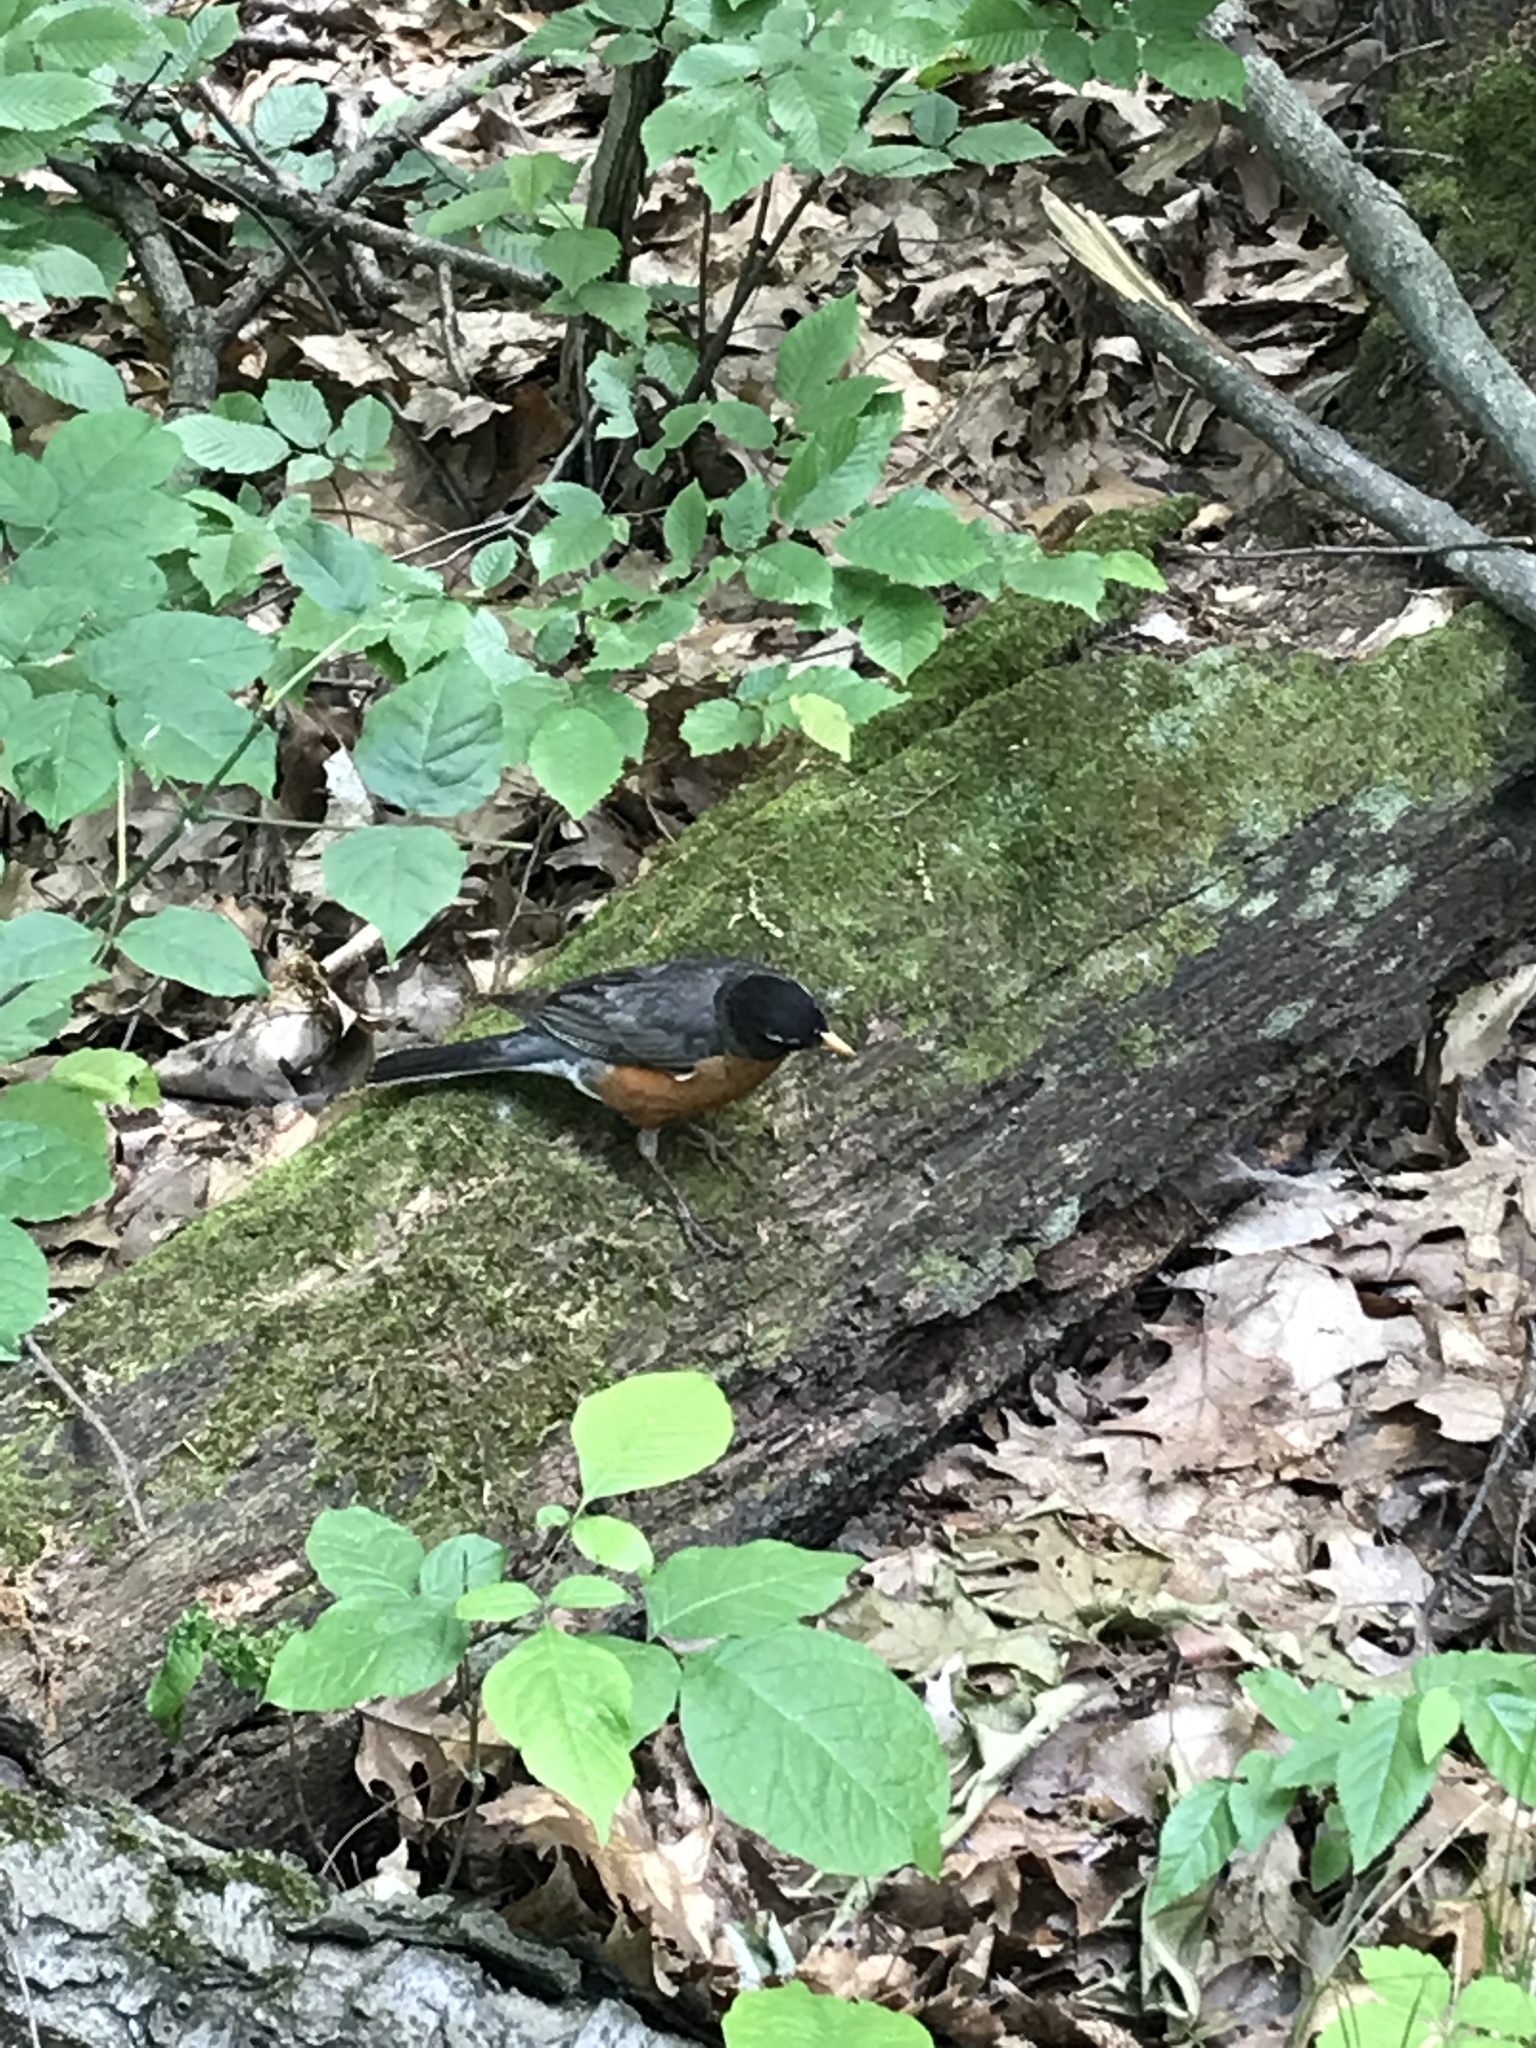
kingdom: Animalia
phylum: Chordata
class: Aves
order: Passeriformes
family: Turdidae
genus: Turdus
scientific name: Turdus migratorius
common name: American robin
